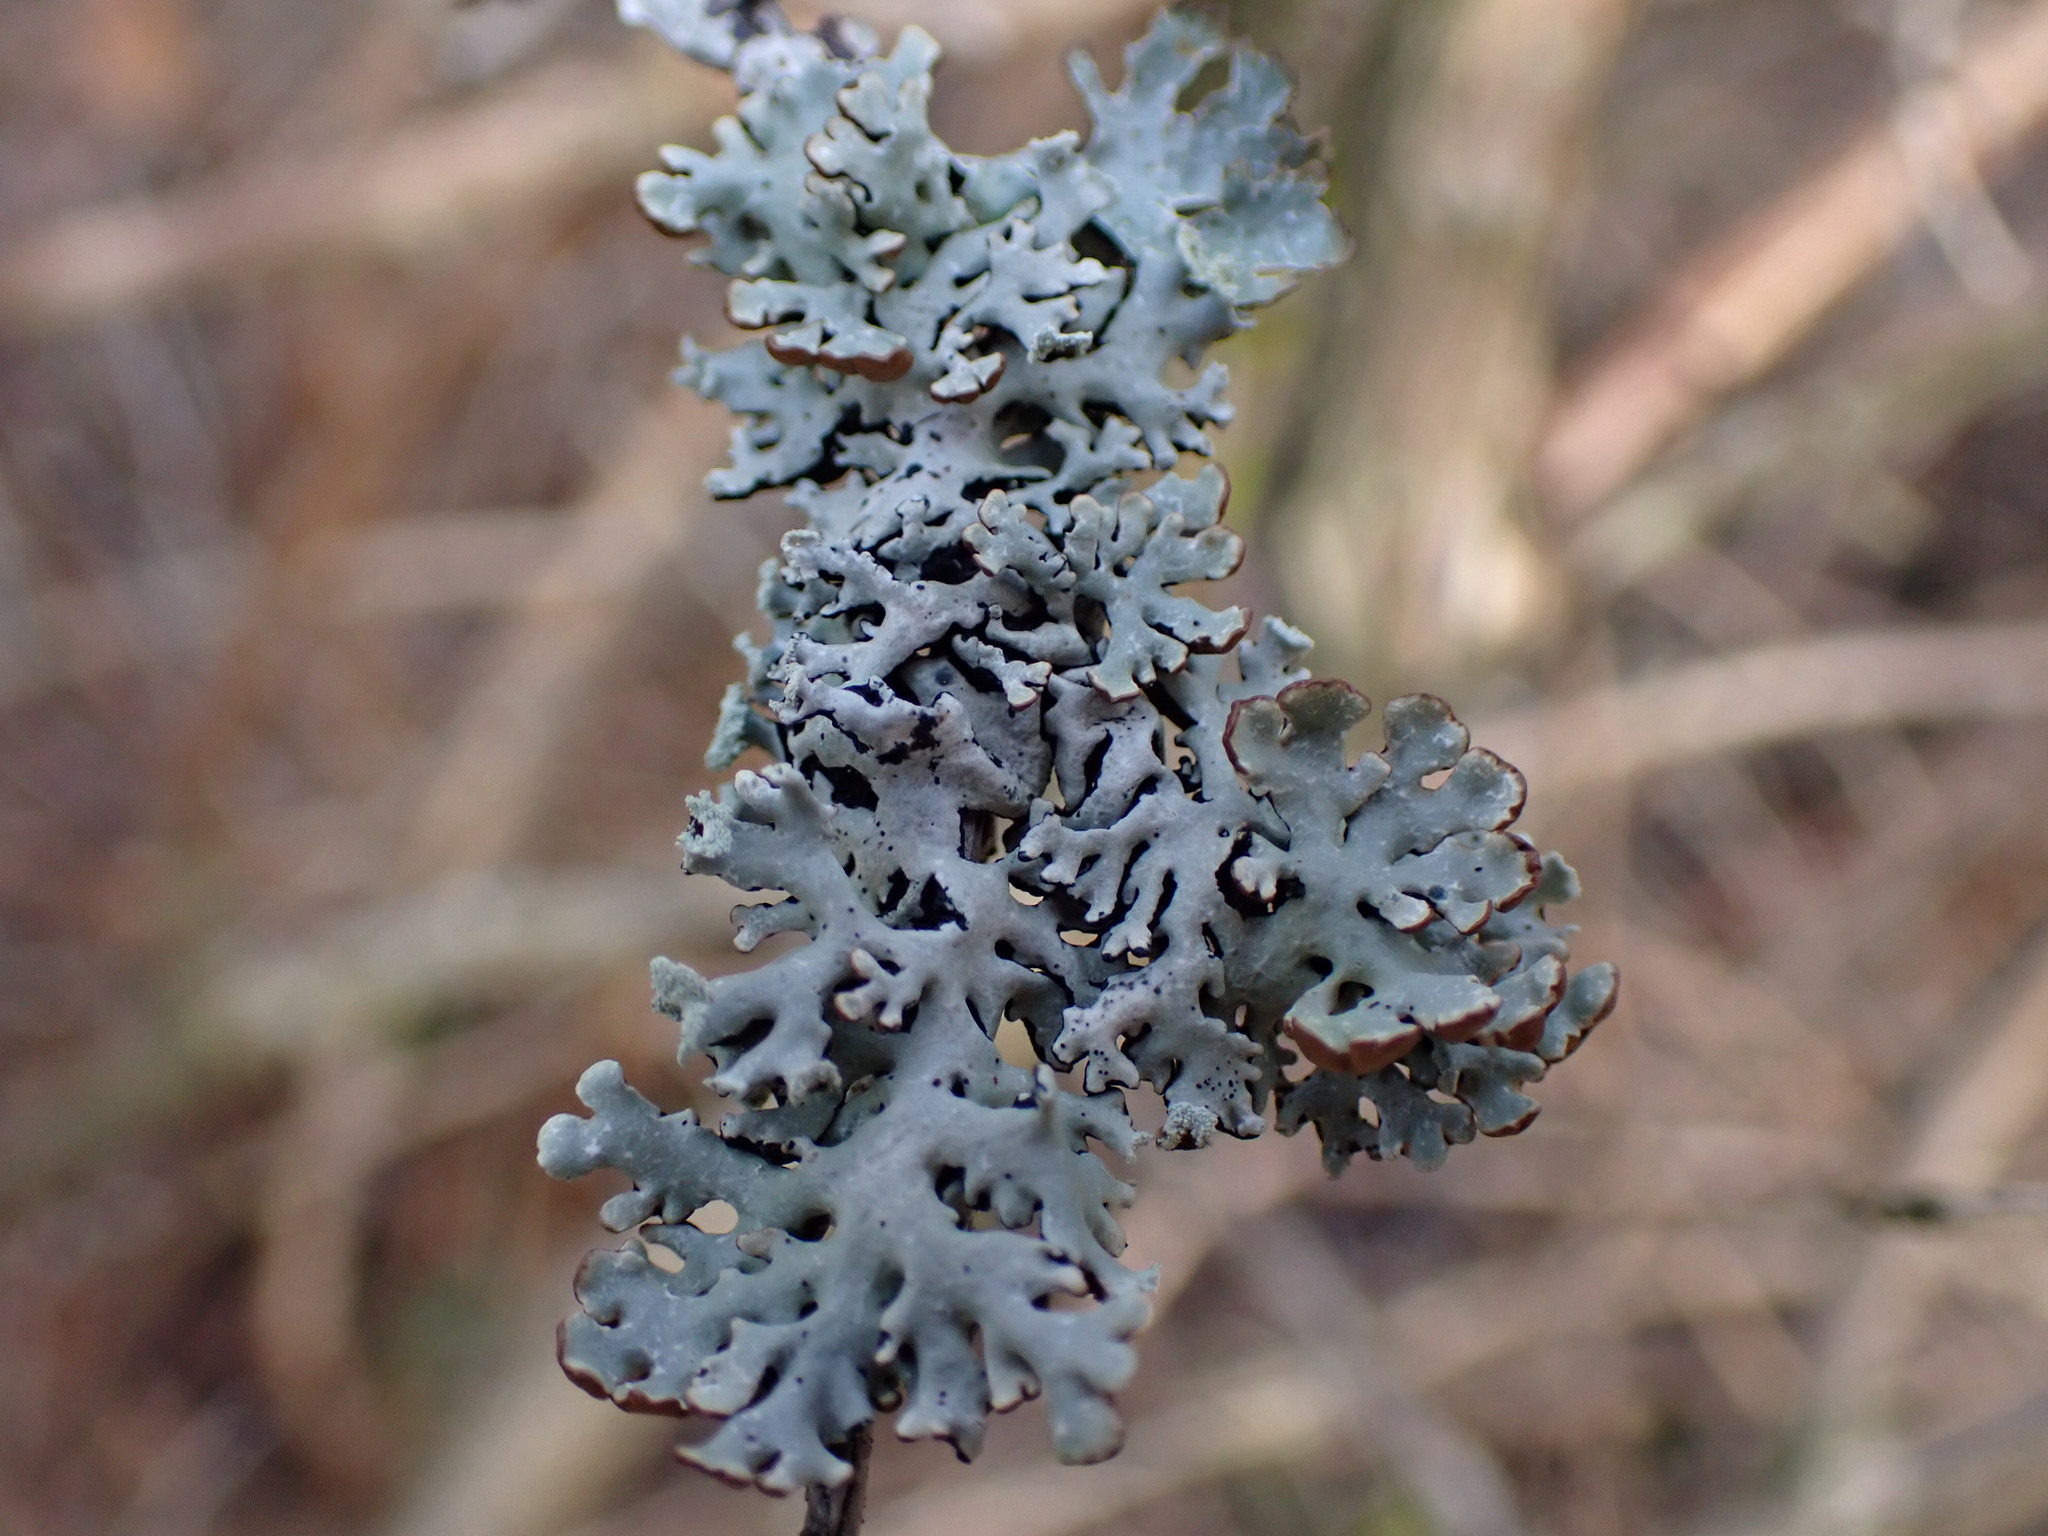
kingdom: Fungi
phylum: Ascomycota
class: Lecanoromycetes
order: Lecanorales
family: Parmeliaceae
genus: Hypogymnia
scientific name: Hypogymnia physodes
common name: Dark crottle
